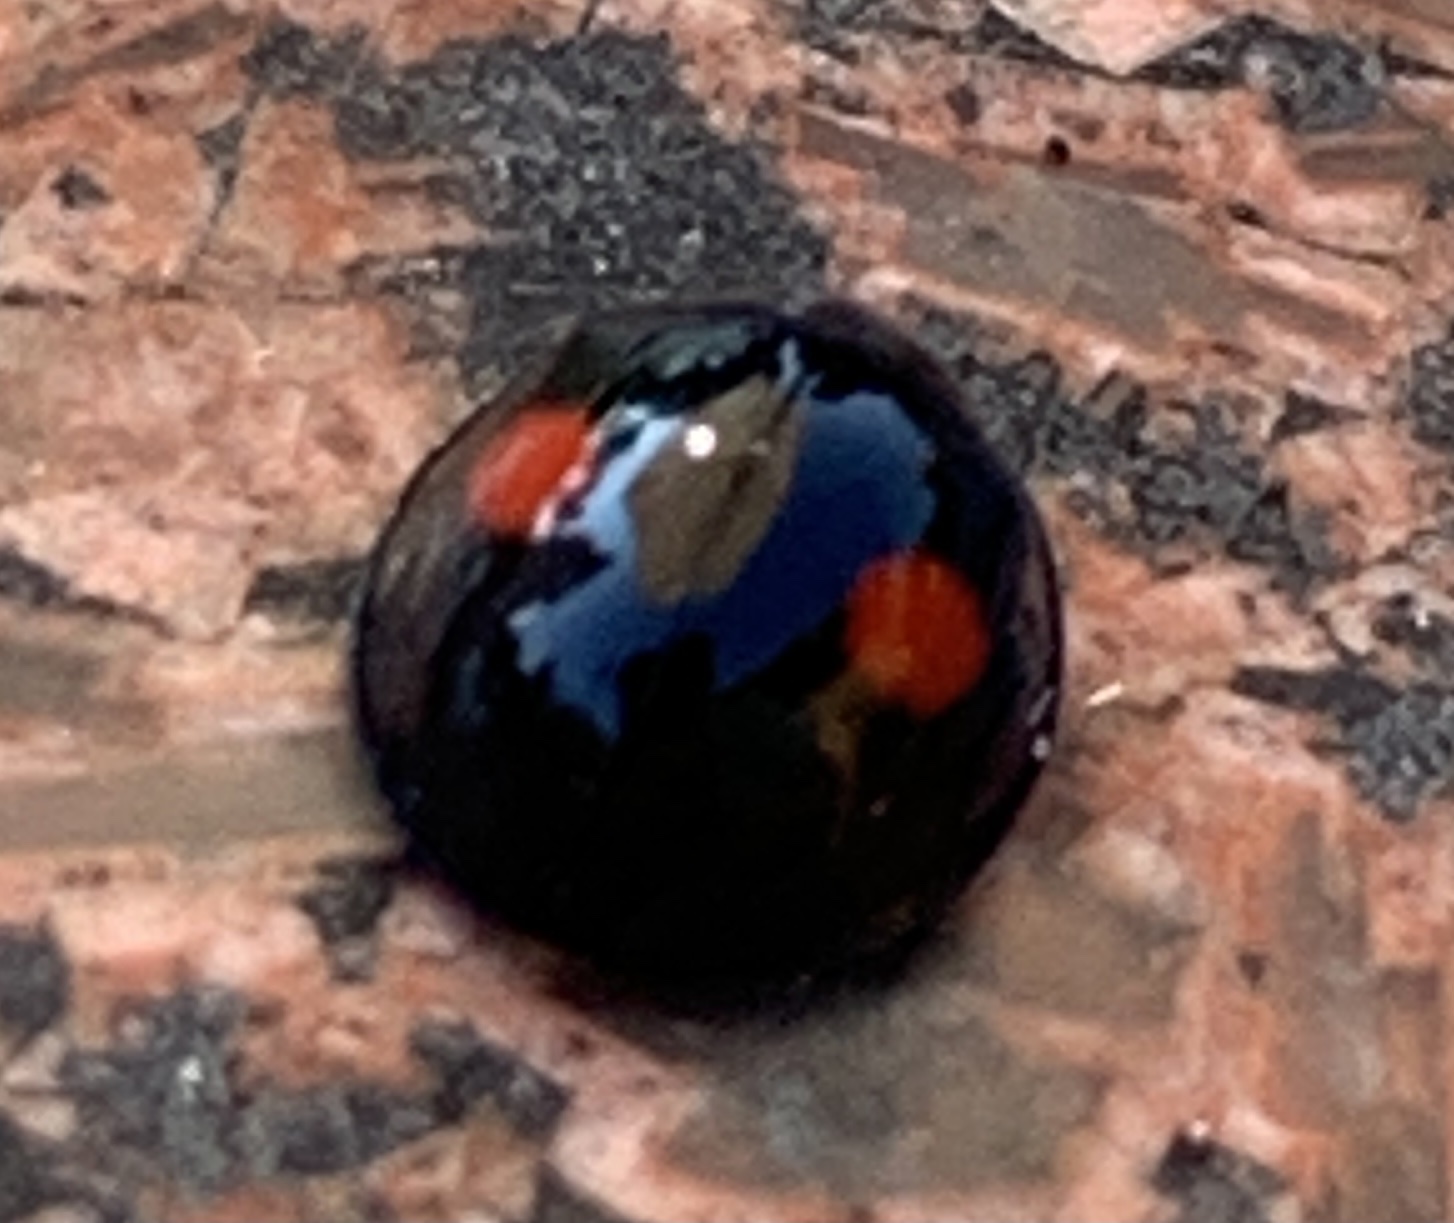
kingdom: Animalia
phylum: Arthropoda
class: Insecta
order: Coleoptera
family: Coccinellidae
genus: Chilocorus
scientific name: Chilocorus stigma
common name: Twicestabbed lady beetle
